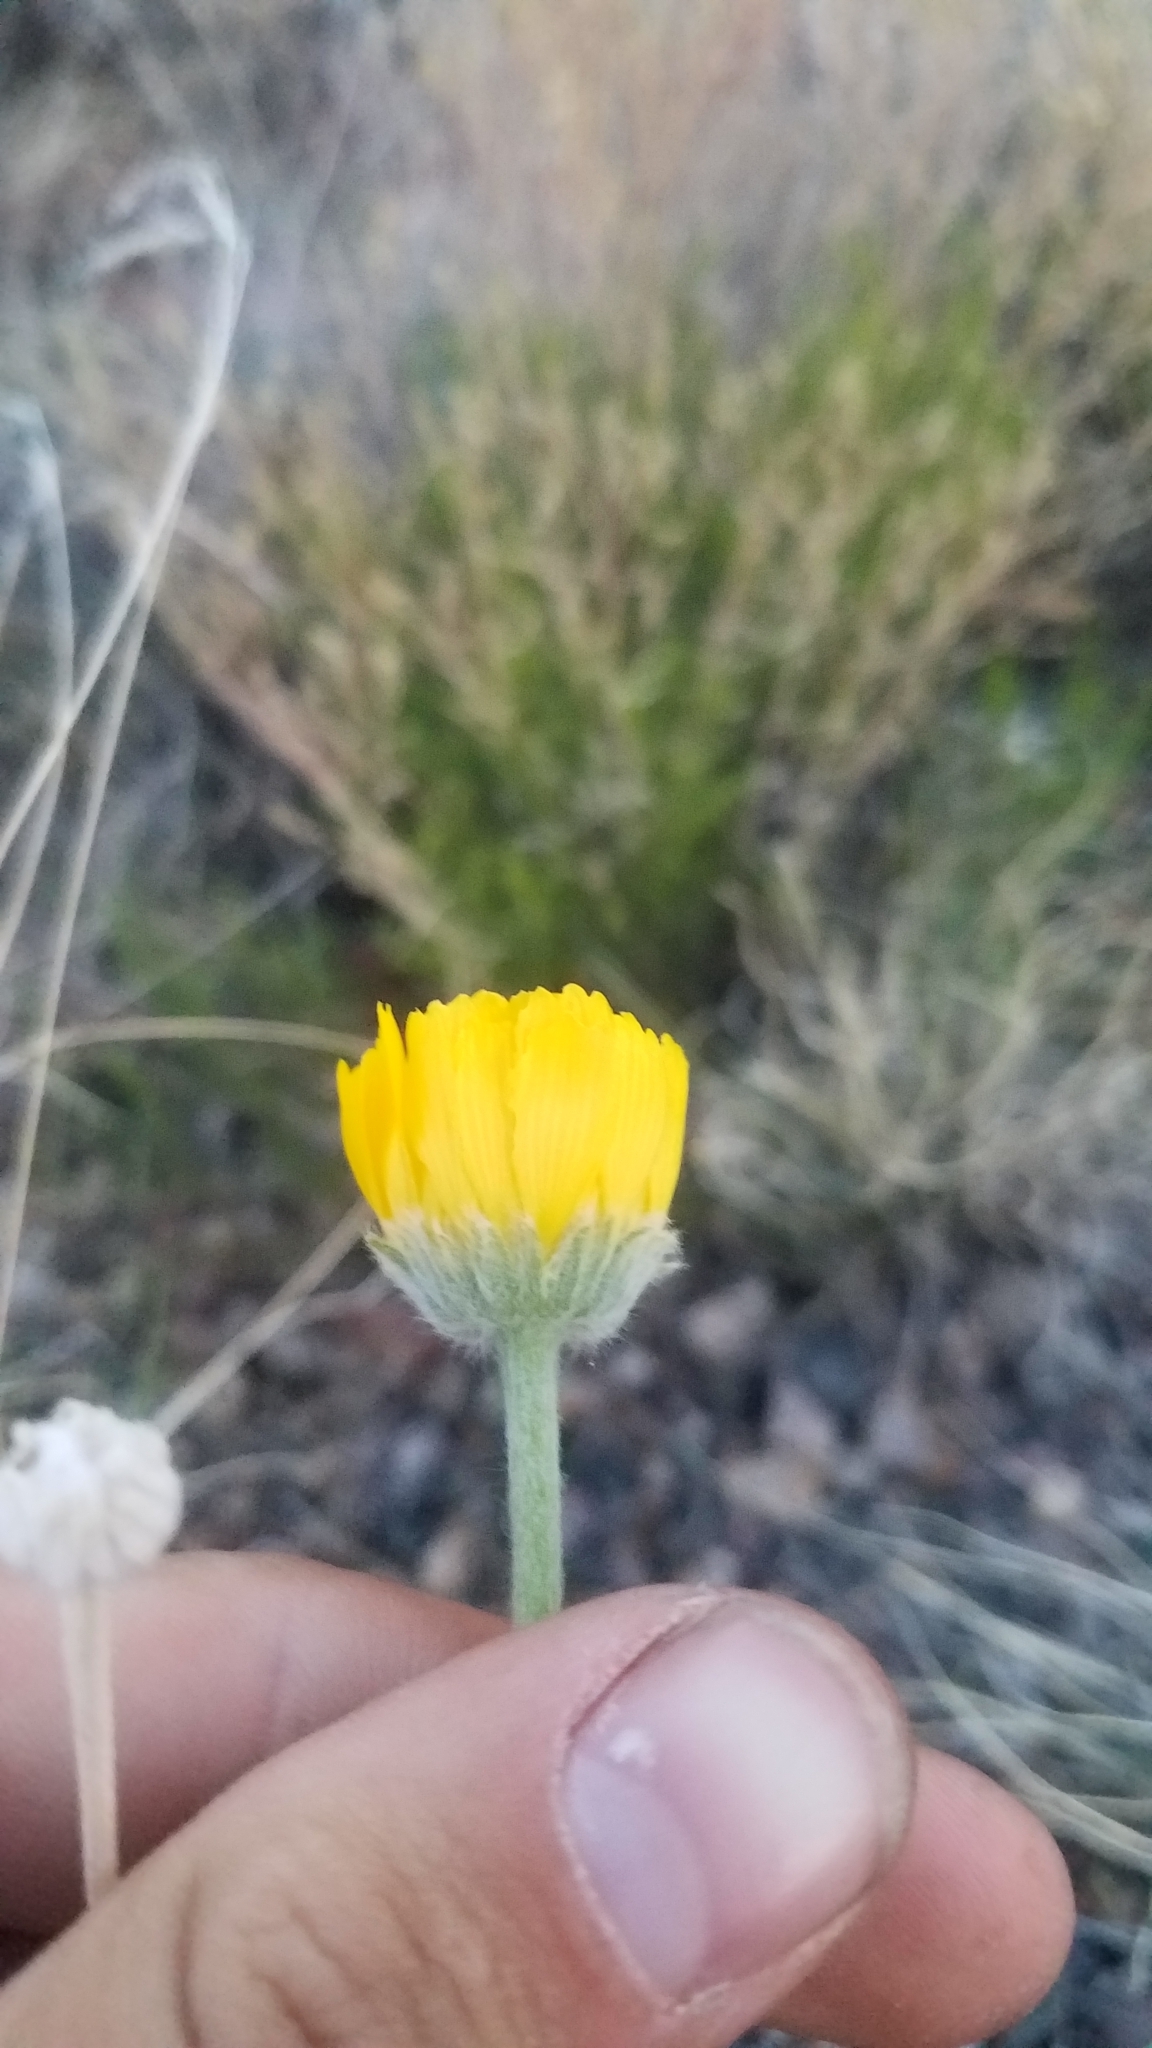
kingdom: Plantae
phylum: Tracheophyta
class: Magnoliopsida
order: Asterales
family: Asteraceae
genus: Baileya
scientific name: Baileya multiradiata
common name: Desert-marigold
